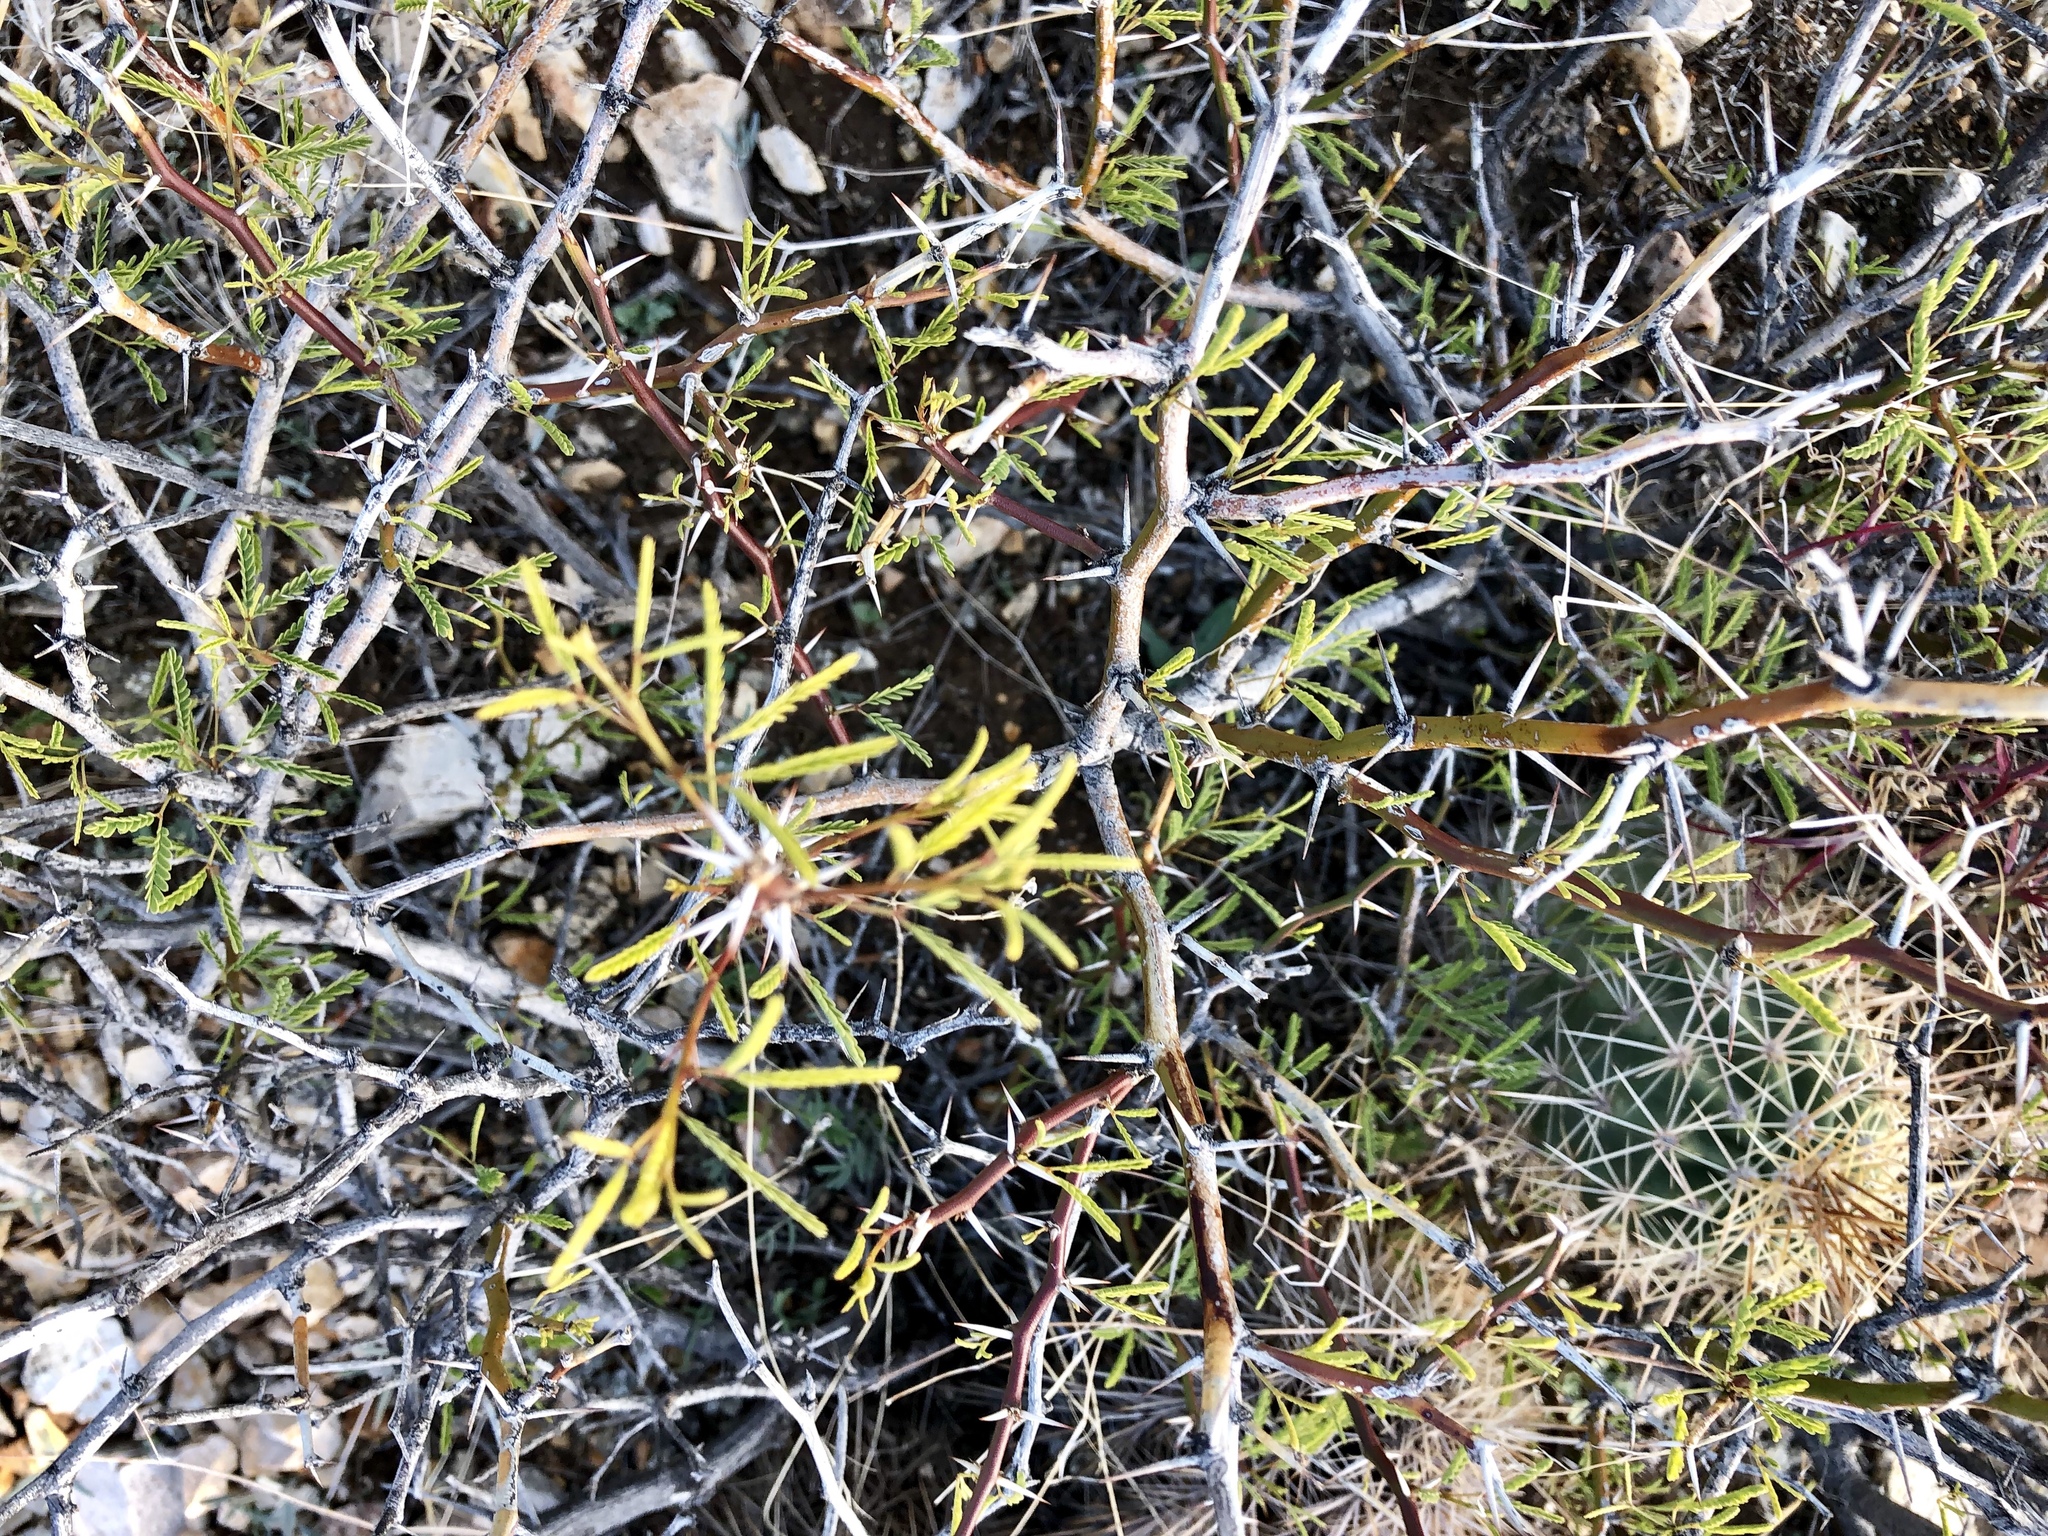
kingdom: Plantae
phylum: Tracheophyta
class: Magnoliopsida
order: Fabales
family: Fabaceae
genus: Prosopis
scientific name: Prosopis glandulosa
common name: Honey mesquite
